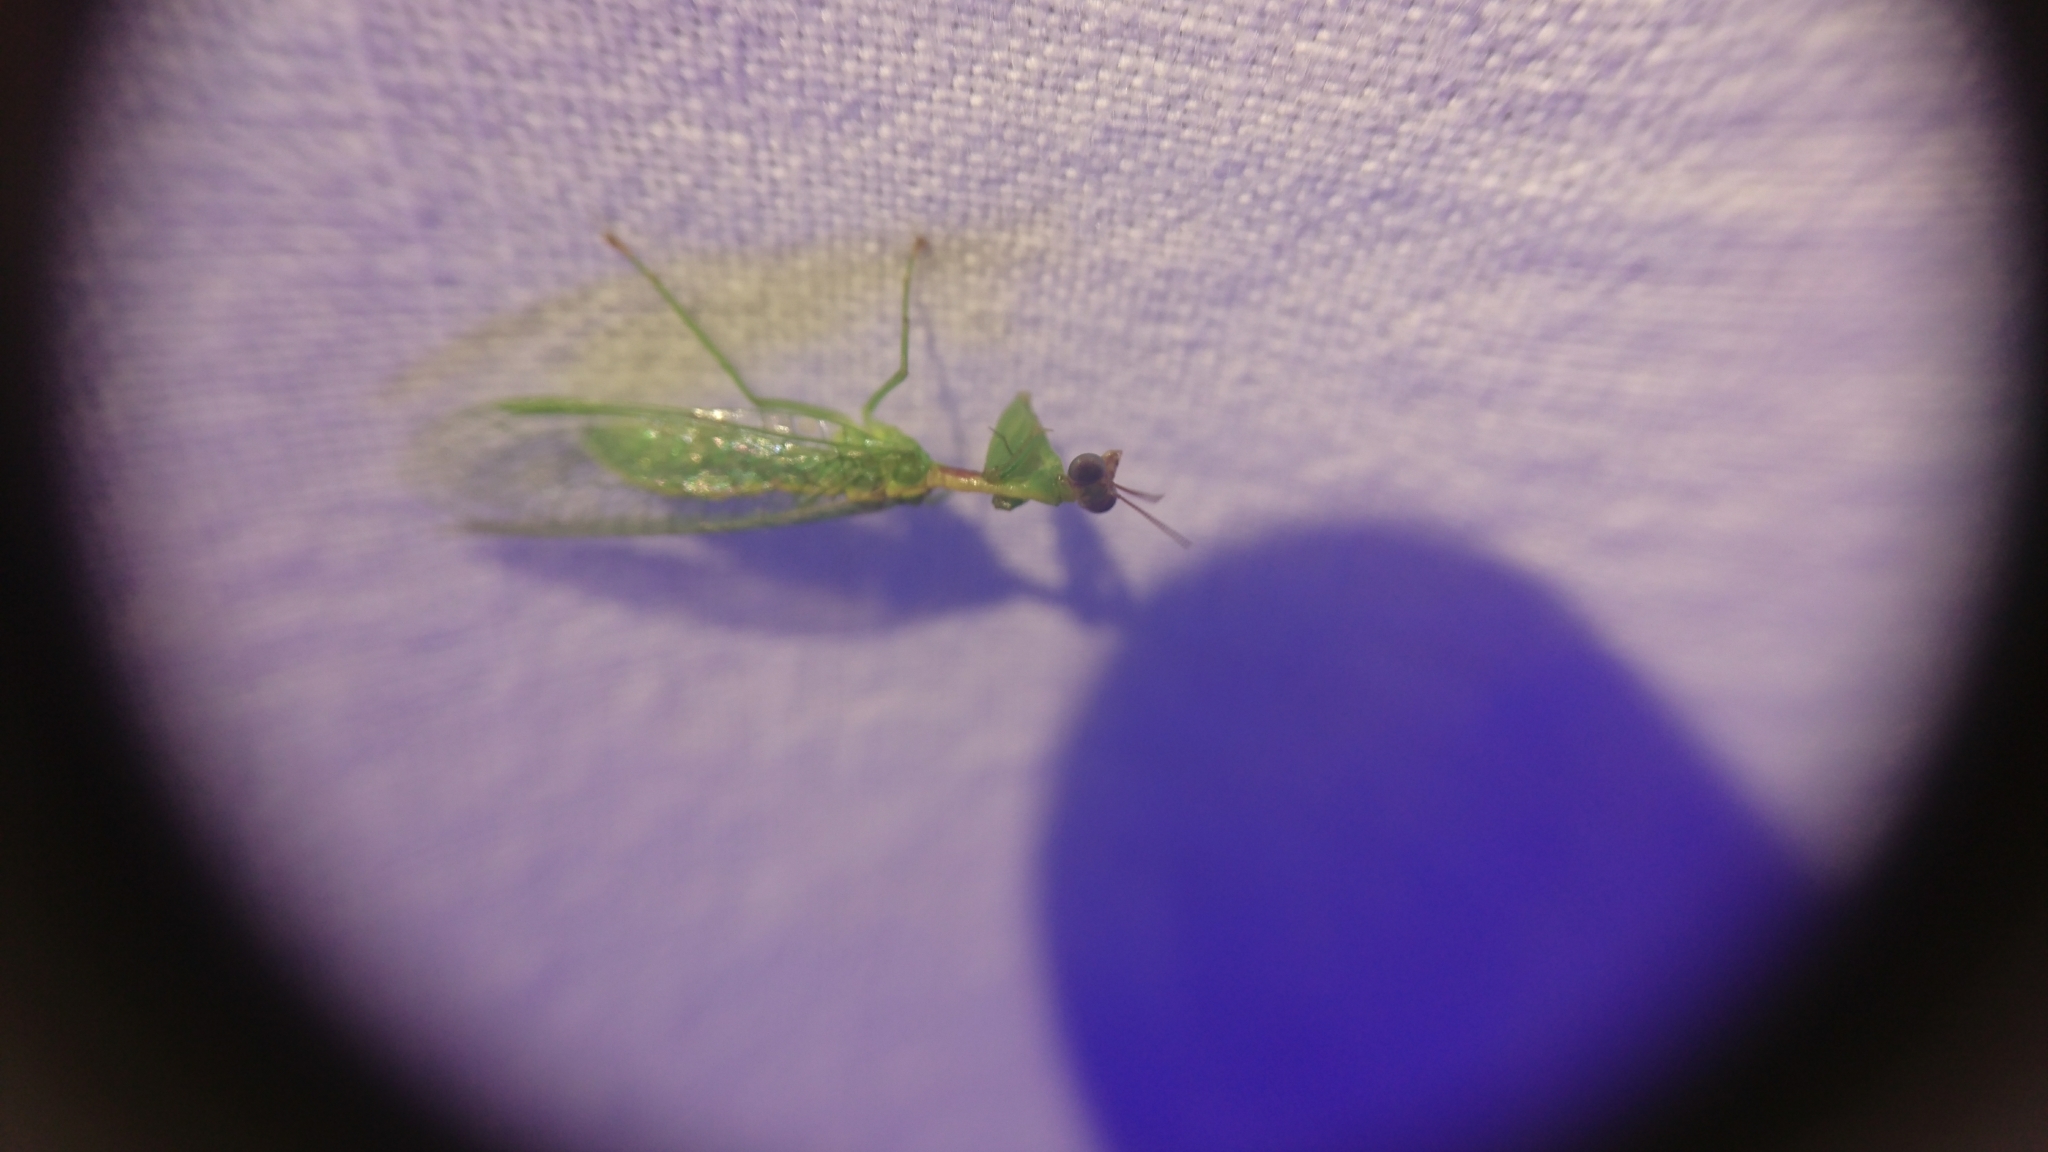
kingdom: Animalia
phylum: Arthropoda
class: Insecta
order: Neuroptera
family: Mantispidae
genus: Zeugomantispa
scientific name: Zeugomantispa minuta
